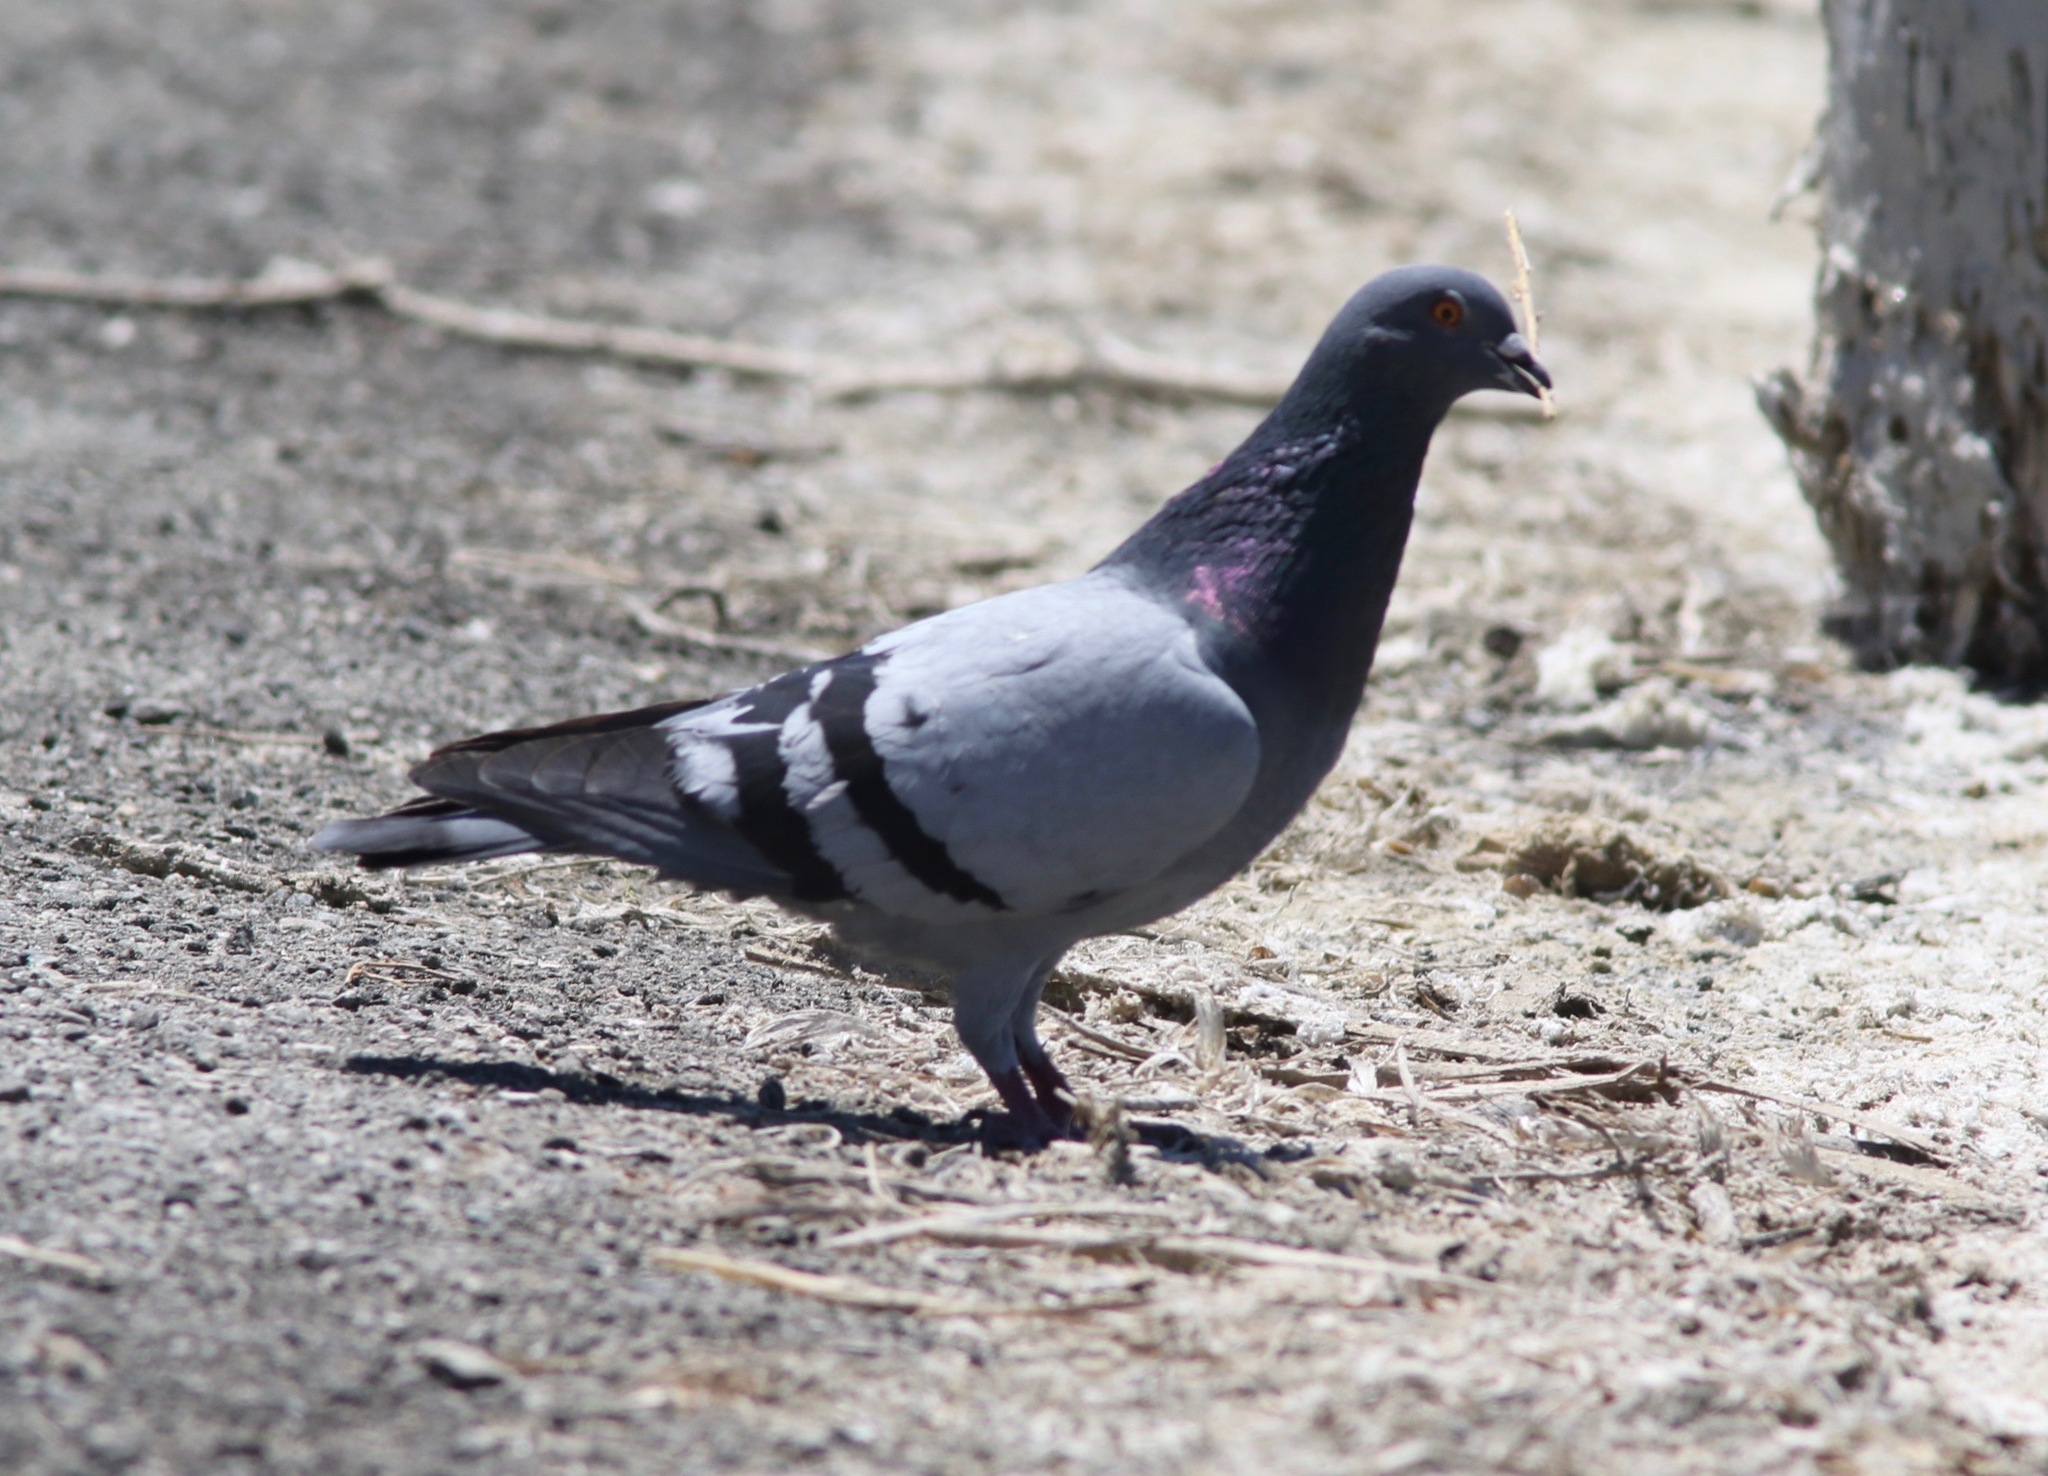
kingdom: Animalia
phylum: Chordata
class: Aves
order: Columbiformes
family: Columbidae
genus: Columba
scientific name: Columba livia
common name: Rock pigeon
